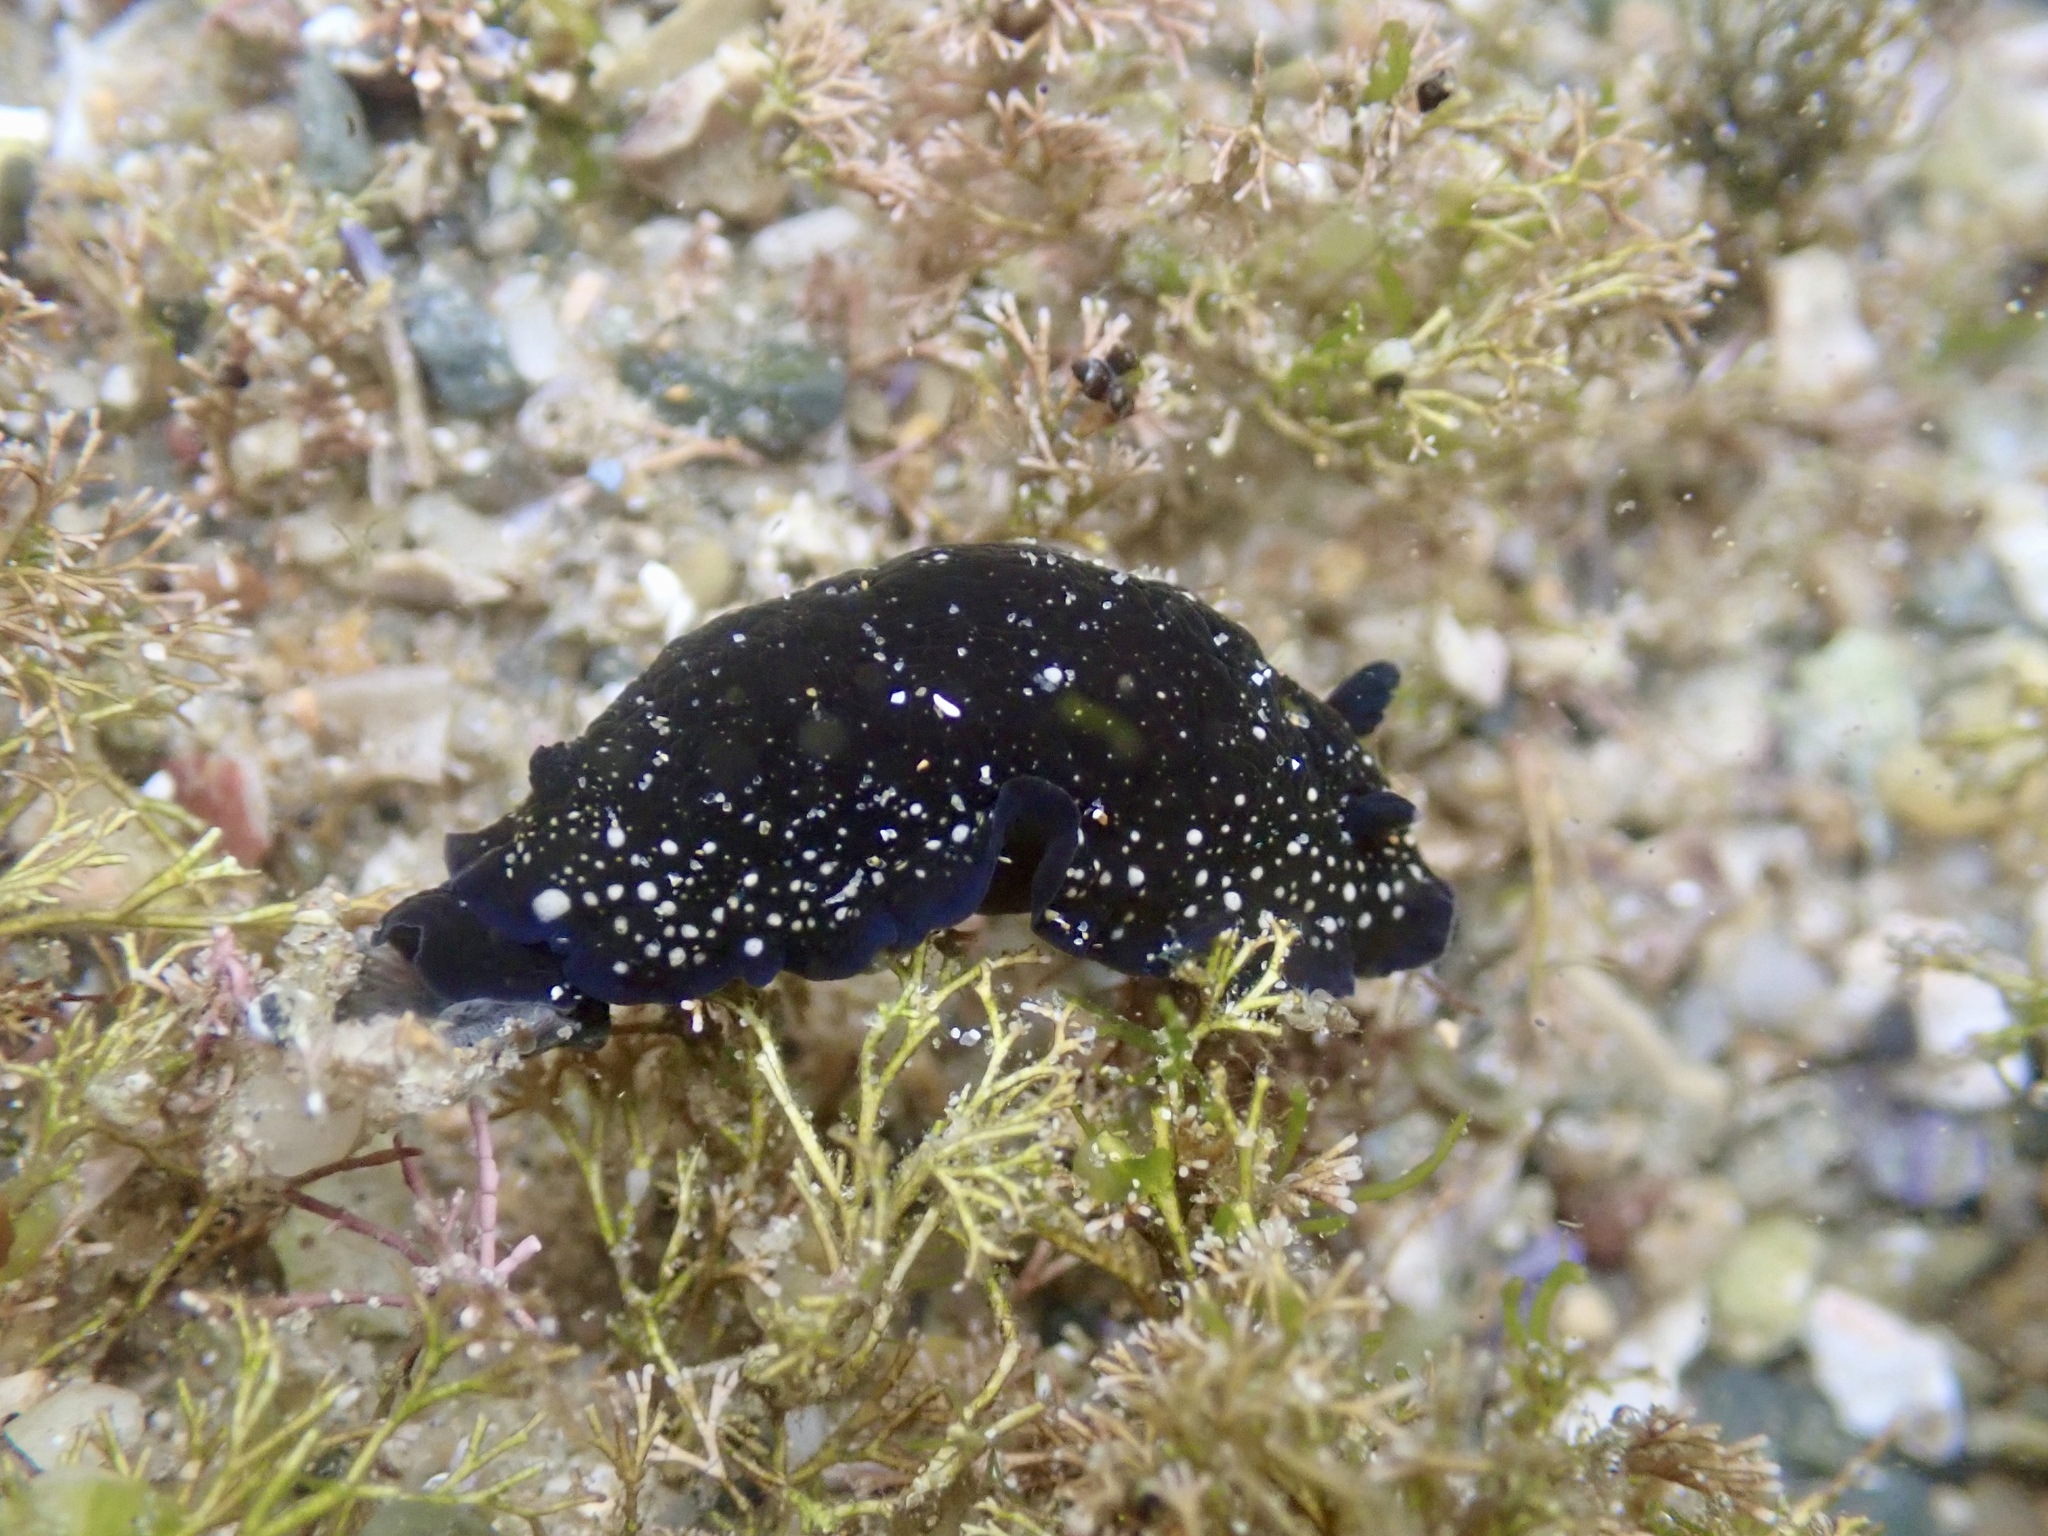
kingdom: Animalia
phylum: Mollusca
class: Gastropoda
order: Nudibranchia
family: Dendrodorididae
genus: Dendrodoris
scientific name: Dendrodoris nigra
